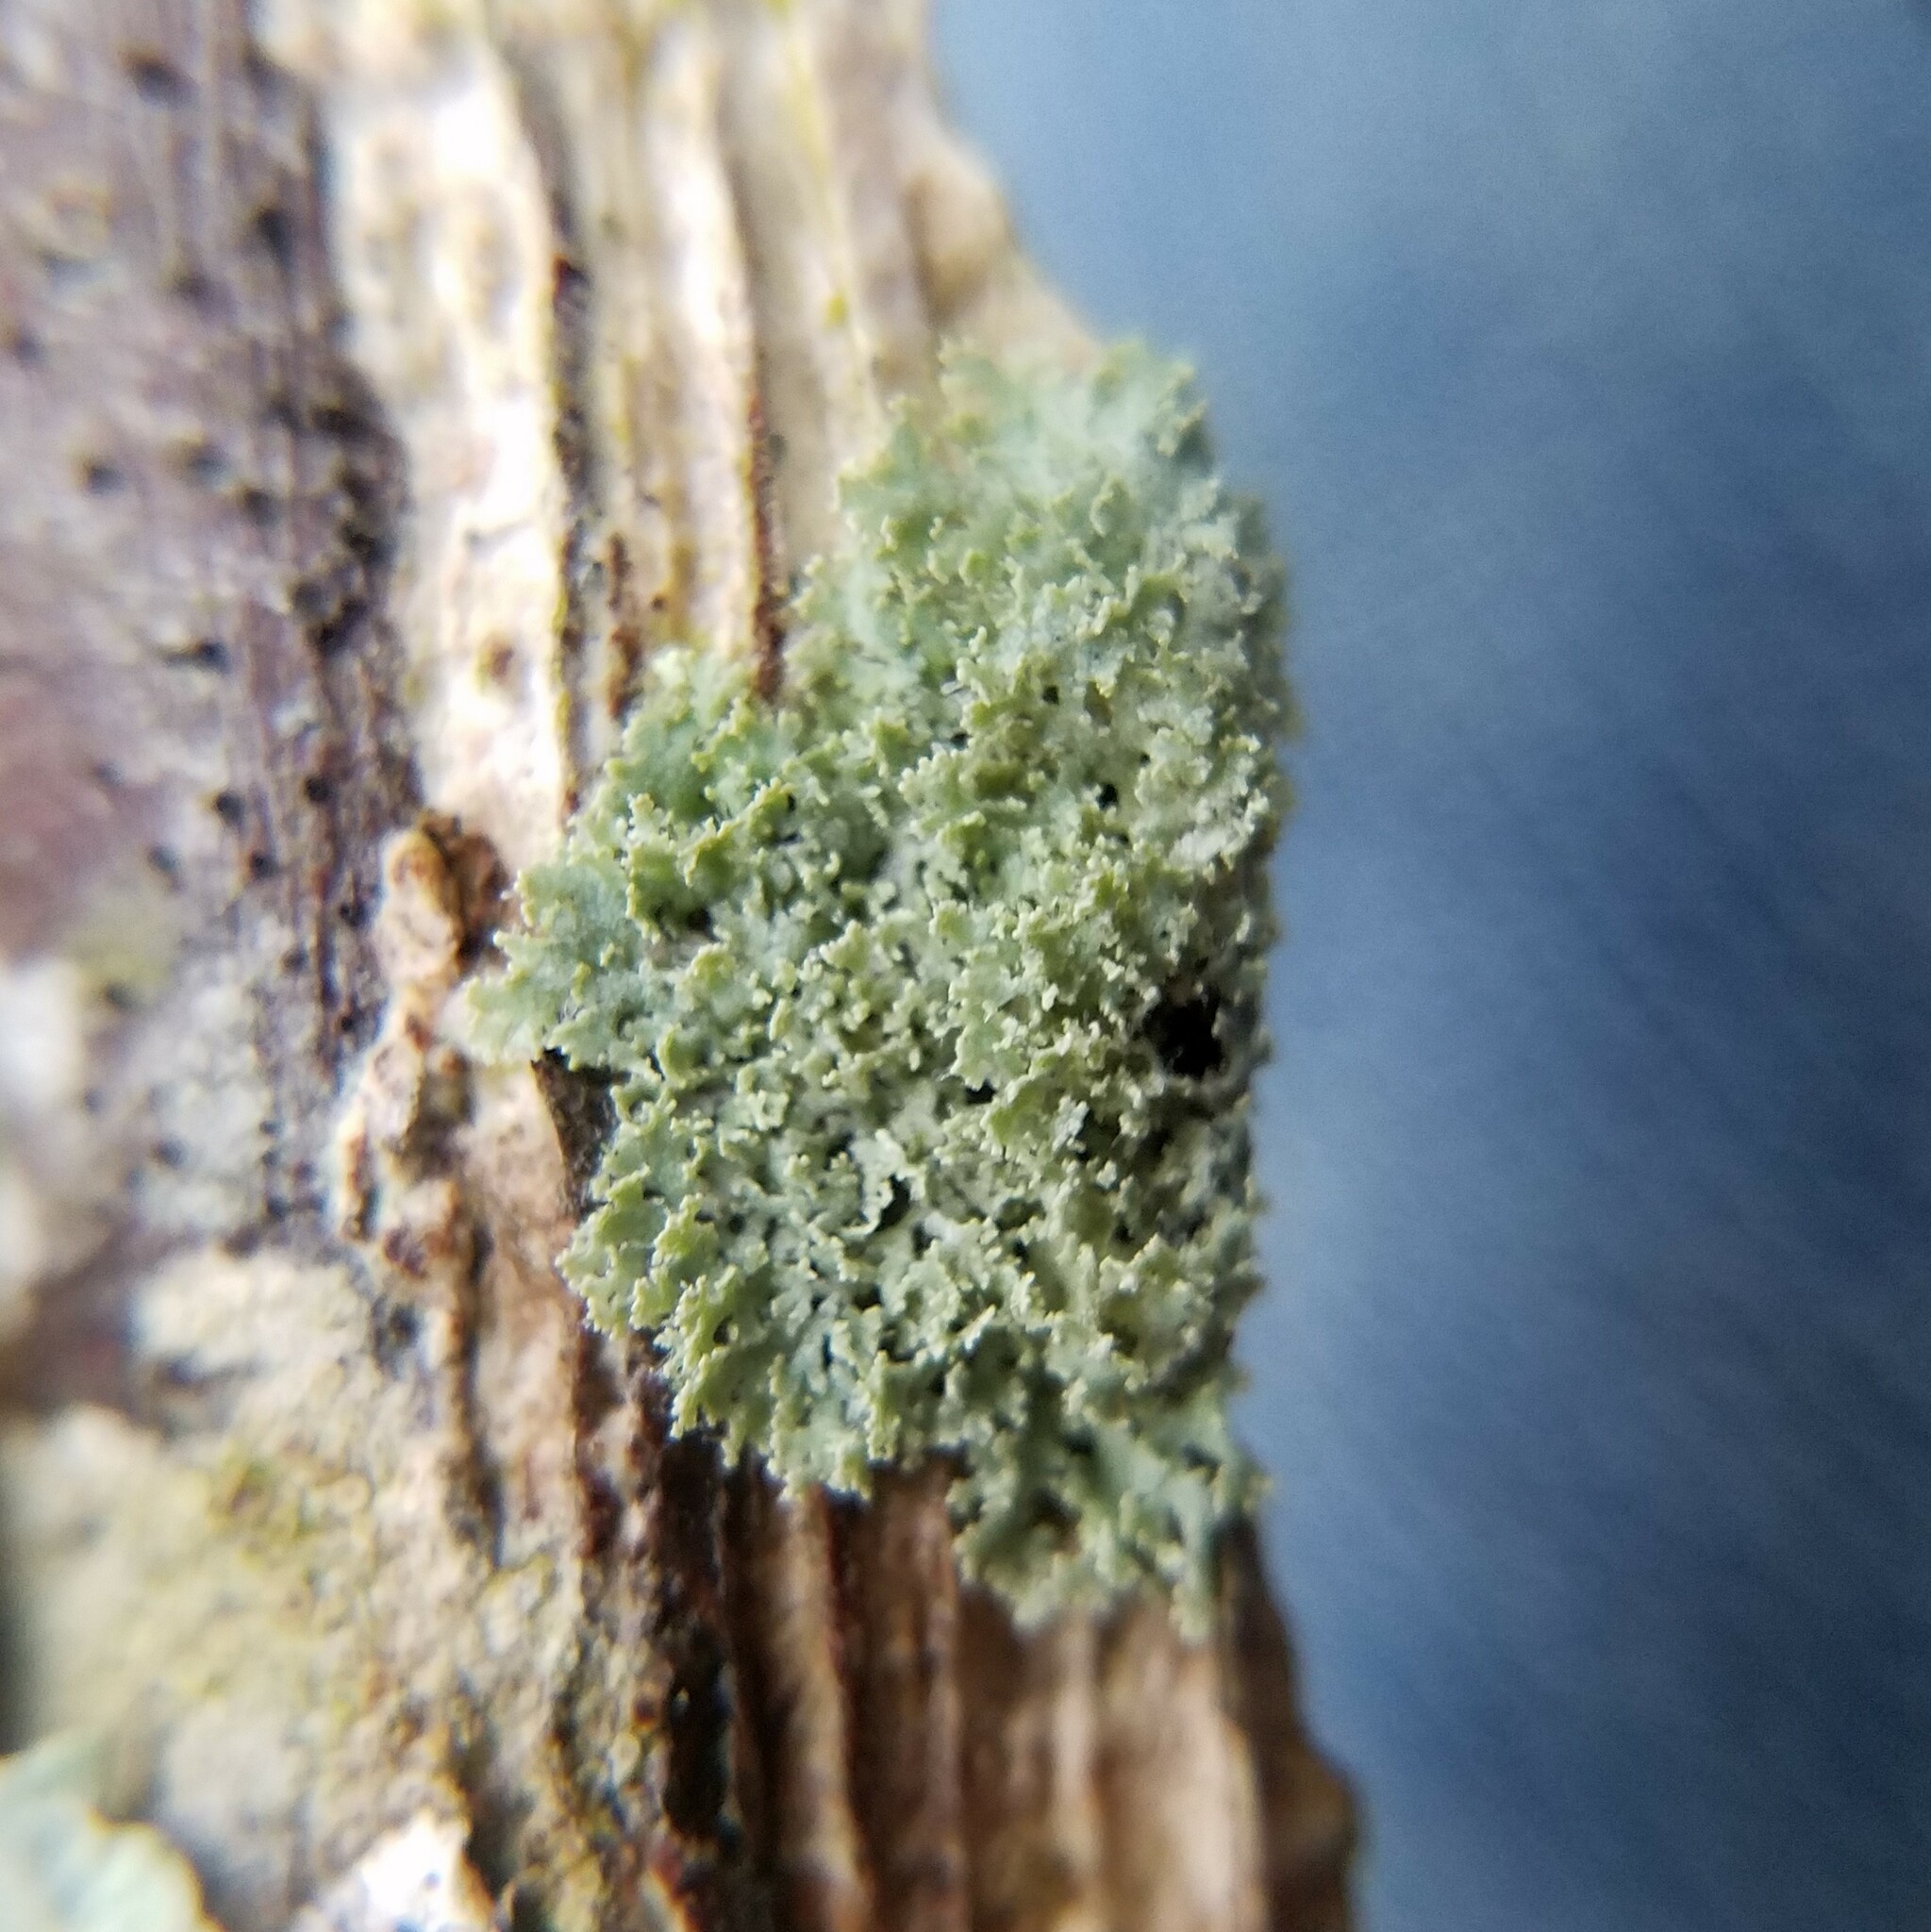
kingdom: Fungi
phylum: Ascomycota
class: Lecanoromycetes
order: Caliciales
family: Physciaceae
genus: Physcia
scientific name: Physcia millegrana
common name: Rosette lichen
